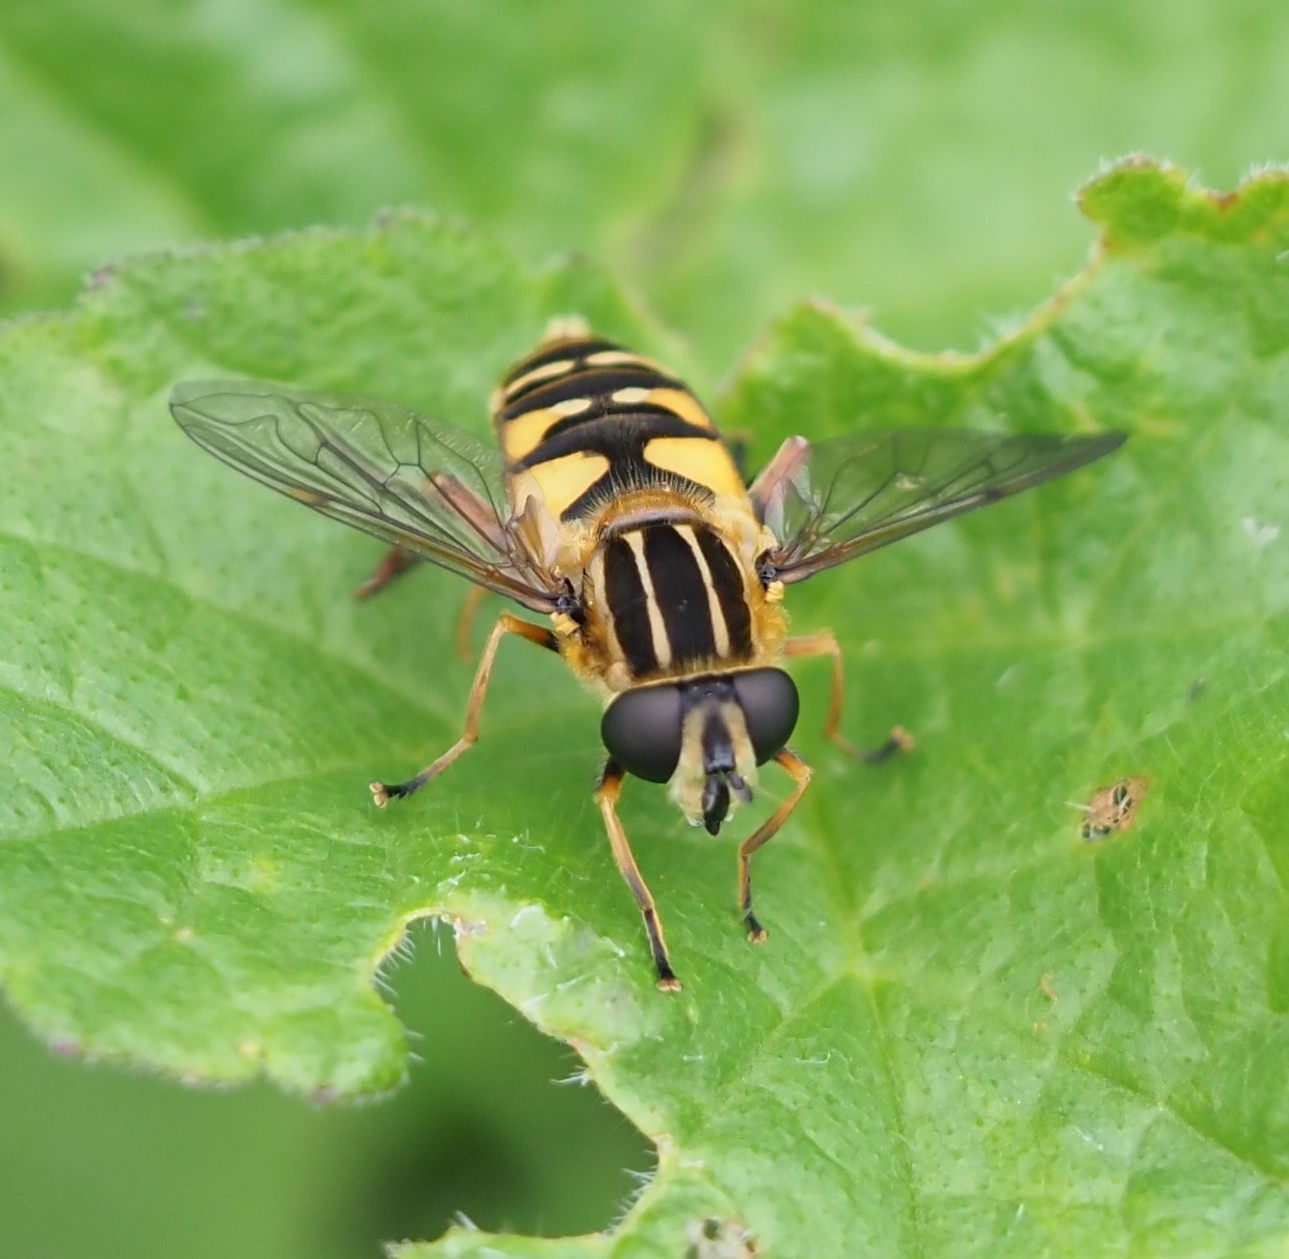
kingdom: Animalia
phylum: Arthropoda
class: Insecta
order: Diptera
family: Syrphidae
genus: Helophilus
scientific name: Helophilus pendulus
